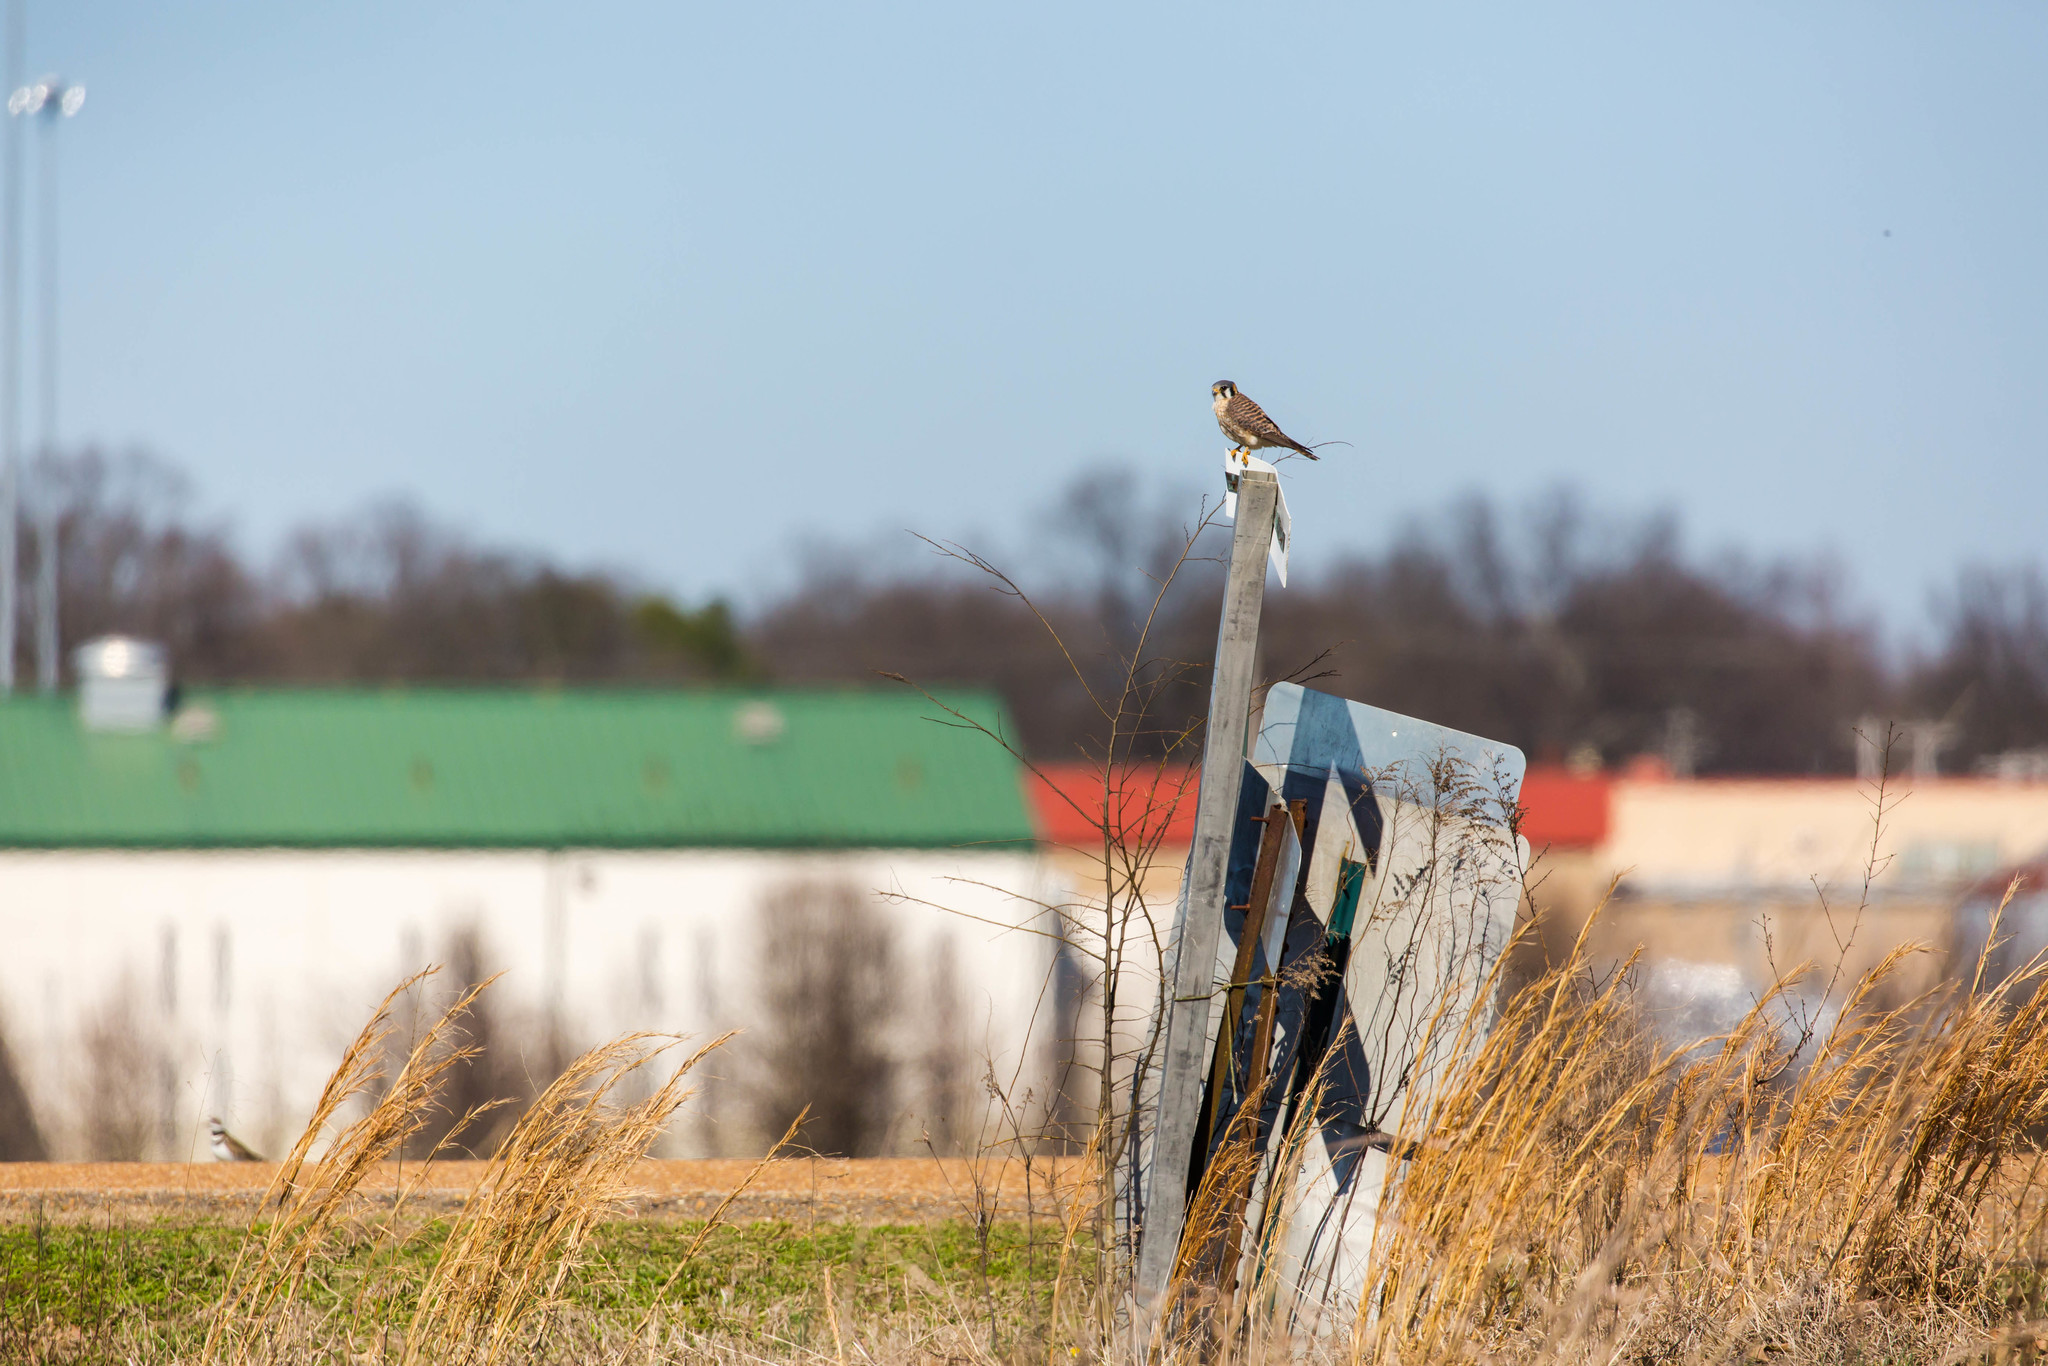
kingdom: Animalia
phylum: Chordata
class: Aves
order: Falconiformes
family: Falconidae
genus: Falco
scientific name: Falco sparverius
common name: American kestrel
